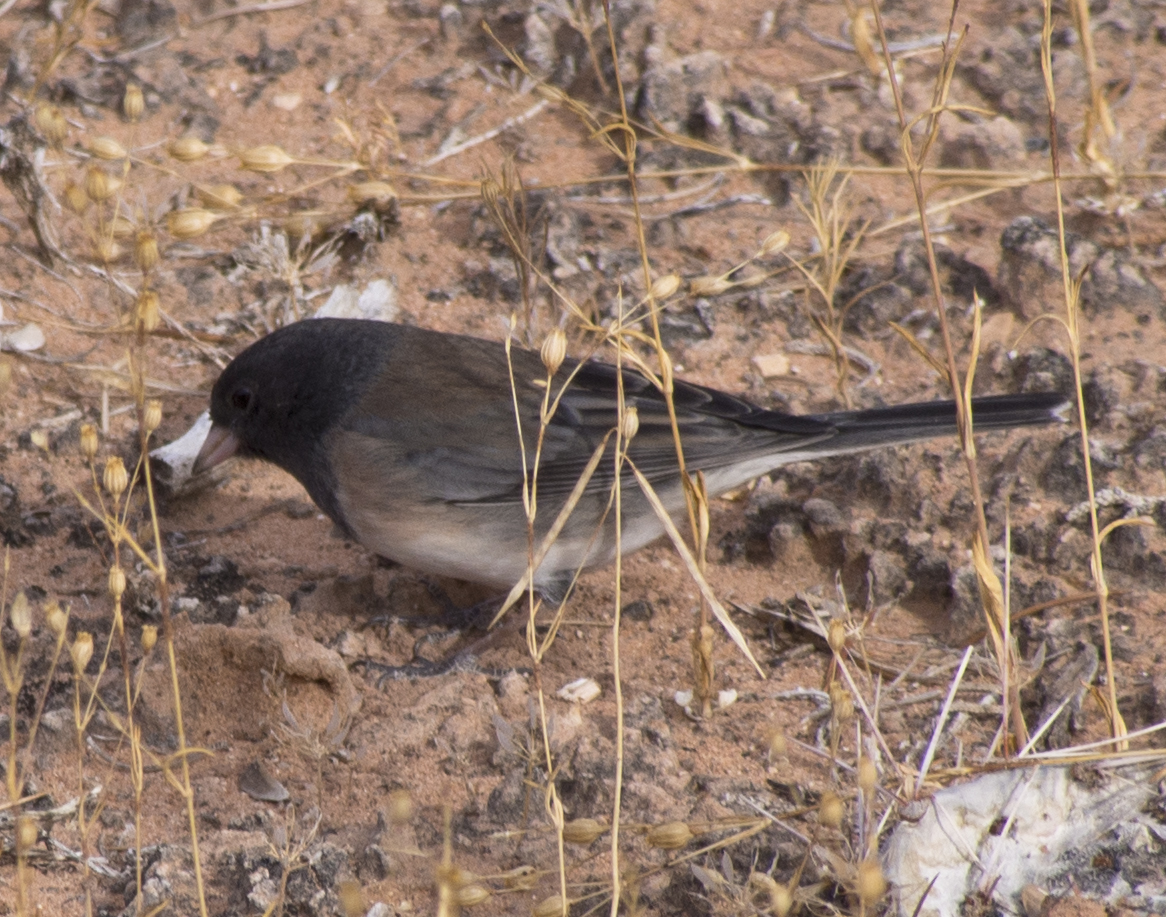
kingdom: Animalia
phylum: Chordata
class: Aves
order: Passeriformes
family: Passerellidae
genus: Junco
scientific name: Junco hyemalis
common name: Dark-eyed junco
